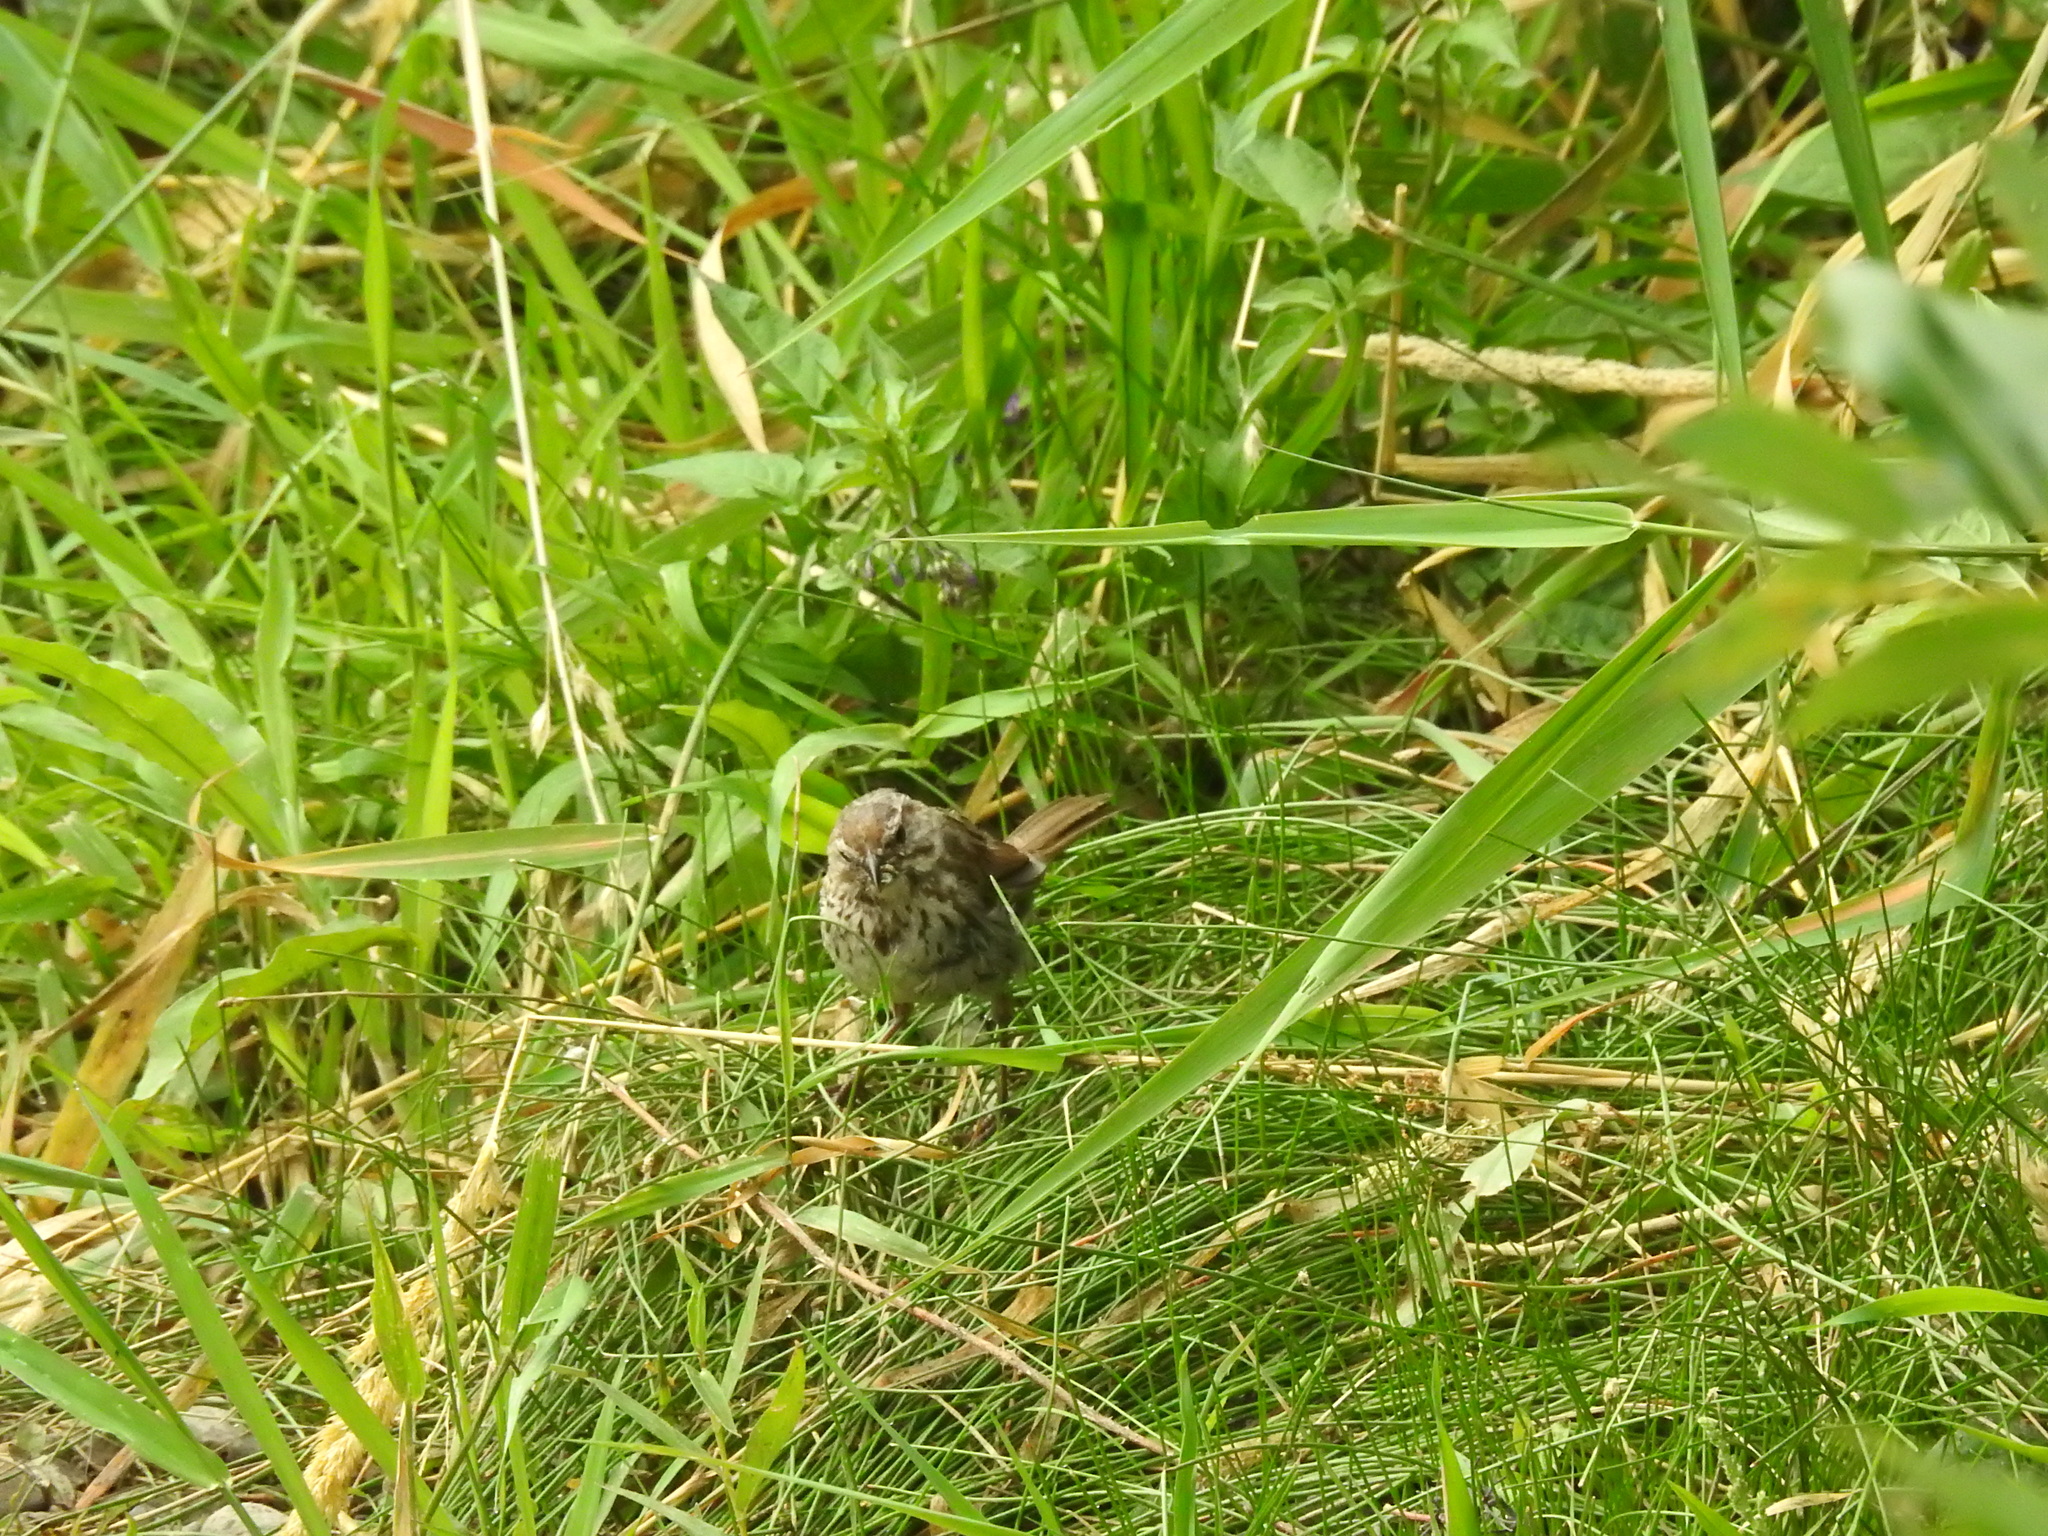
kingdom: Animalia
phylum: Chordata
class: Aves
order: Passeriformes
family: Passerellidae
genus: Melospiza
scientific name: Melospiza melodia
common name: Song sparrow
